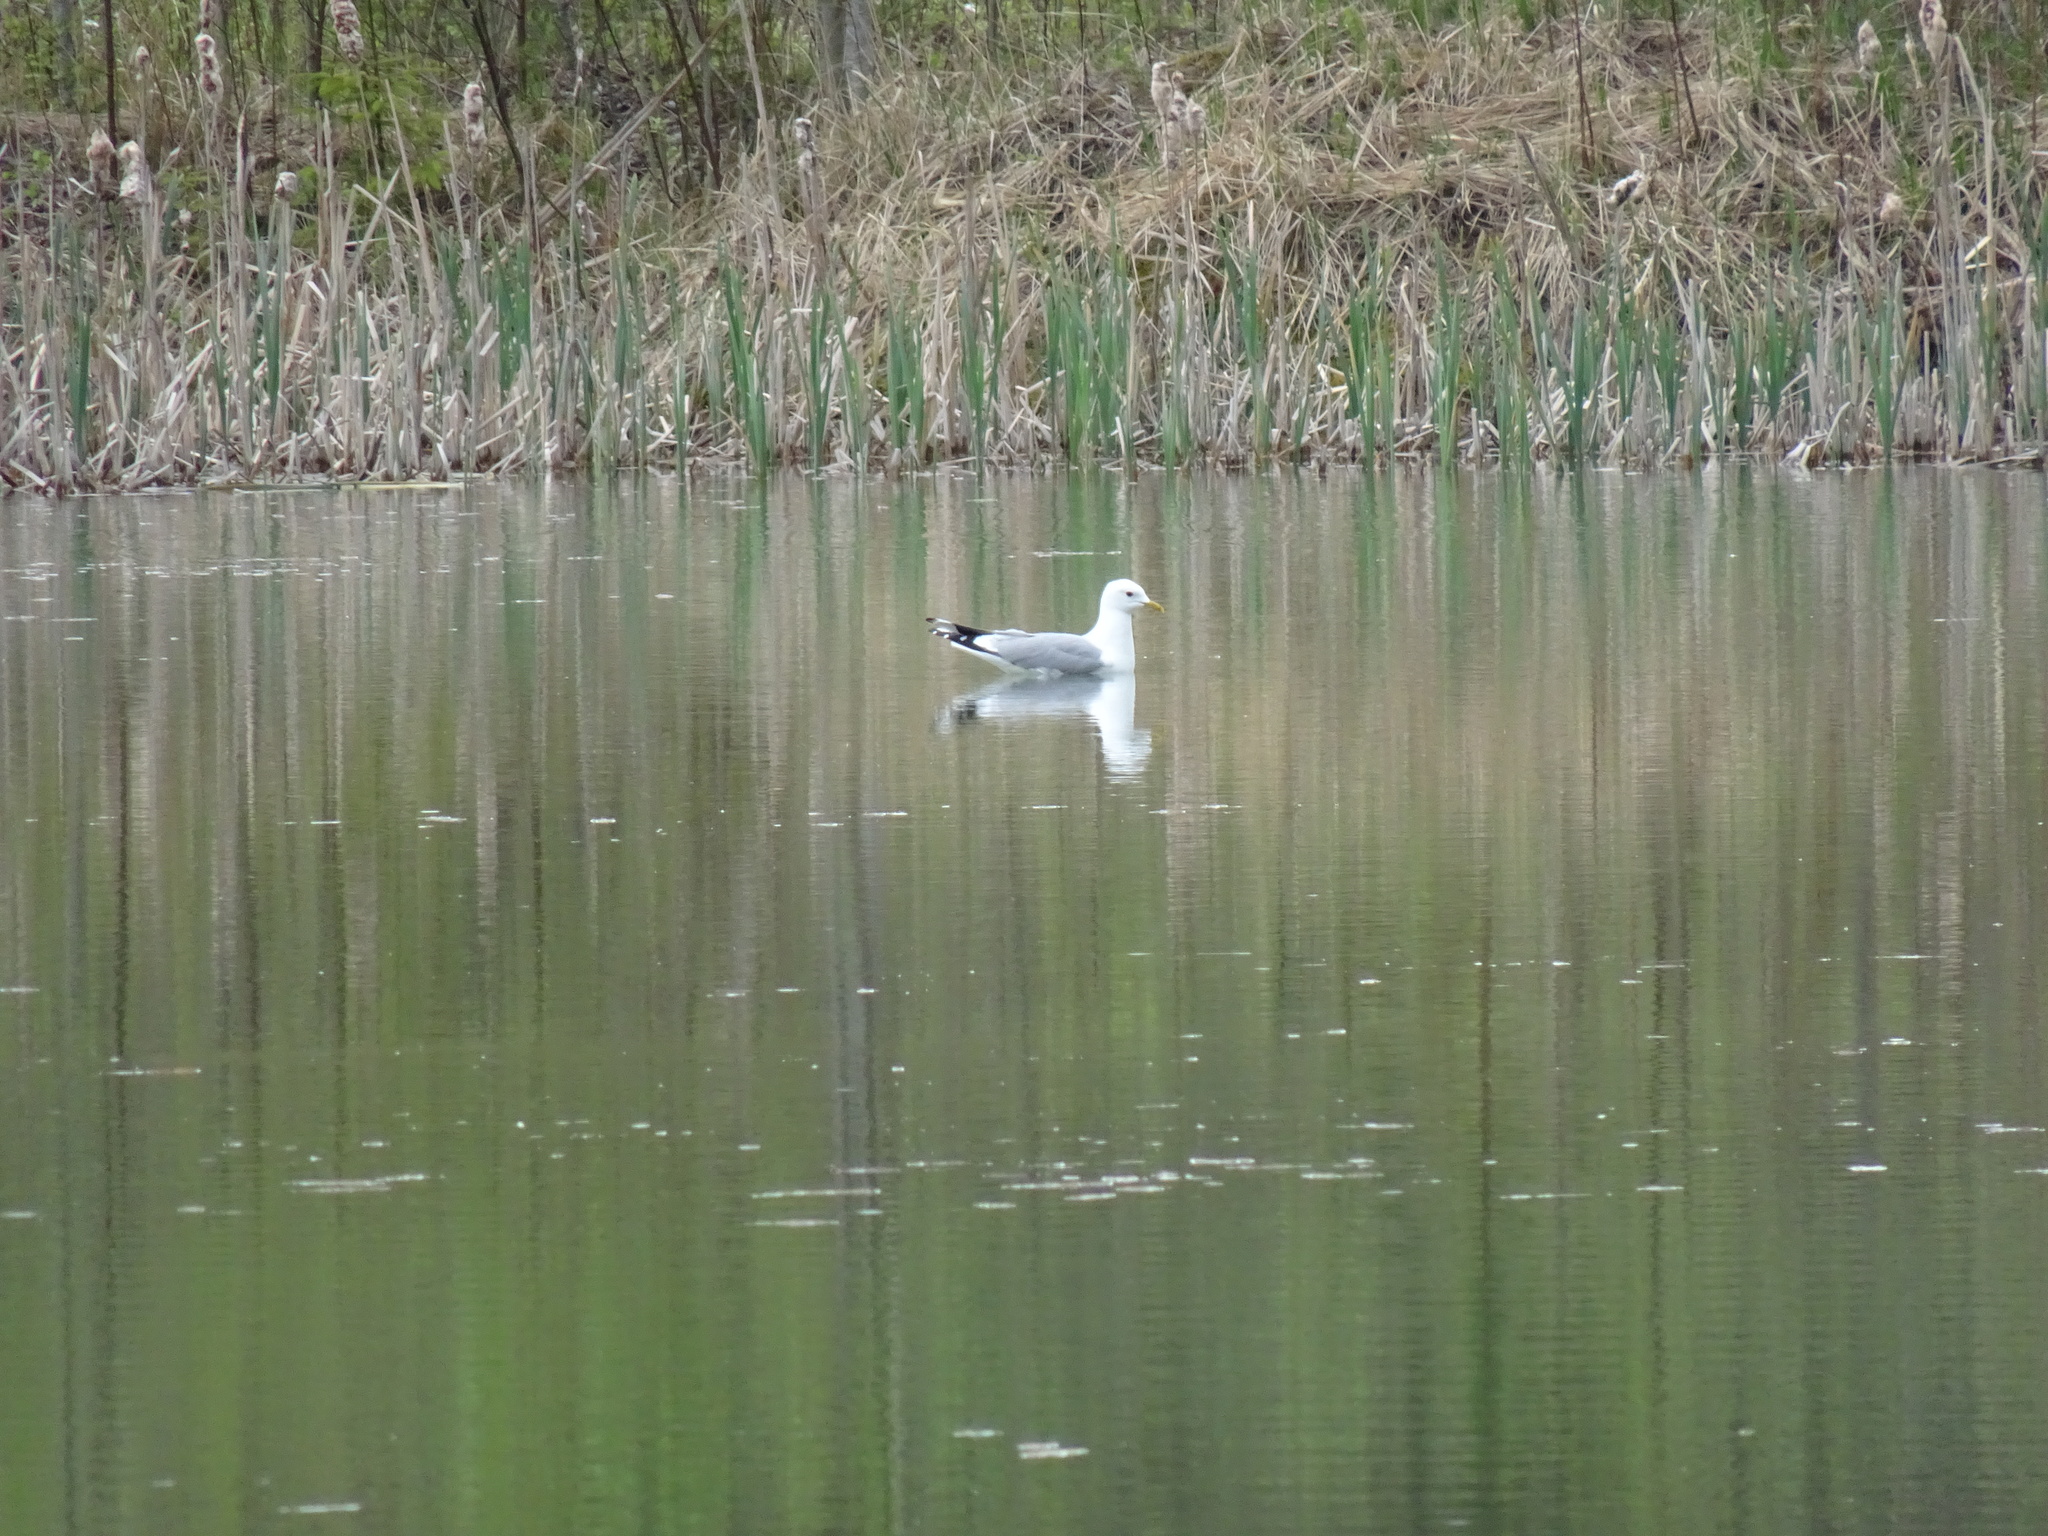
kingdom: Animalia
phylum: Chordata
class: Aves
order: Charadriiformes
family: Laridae
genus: Larus
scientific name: Larus canus
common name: Mew gull
